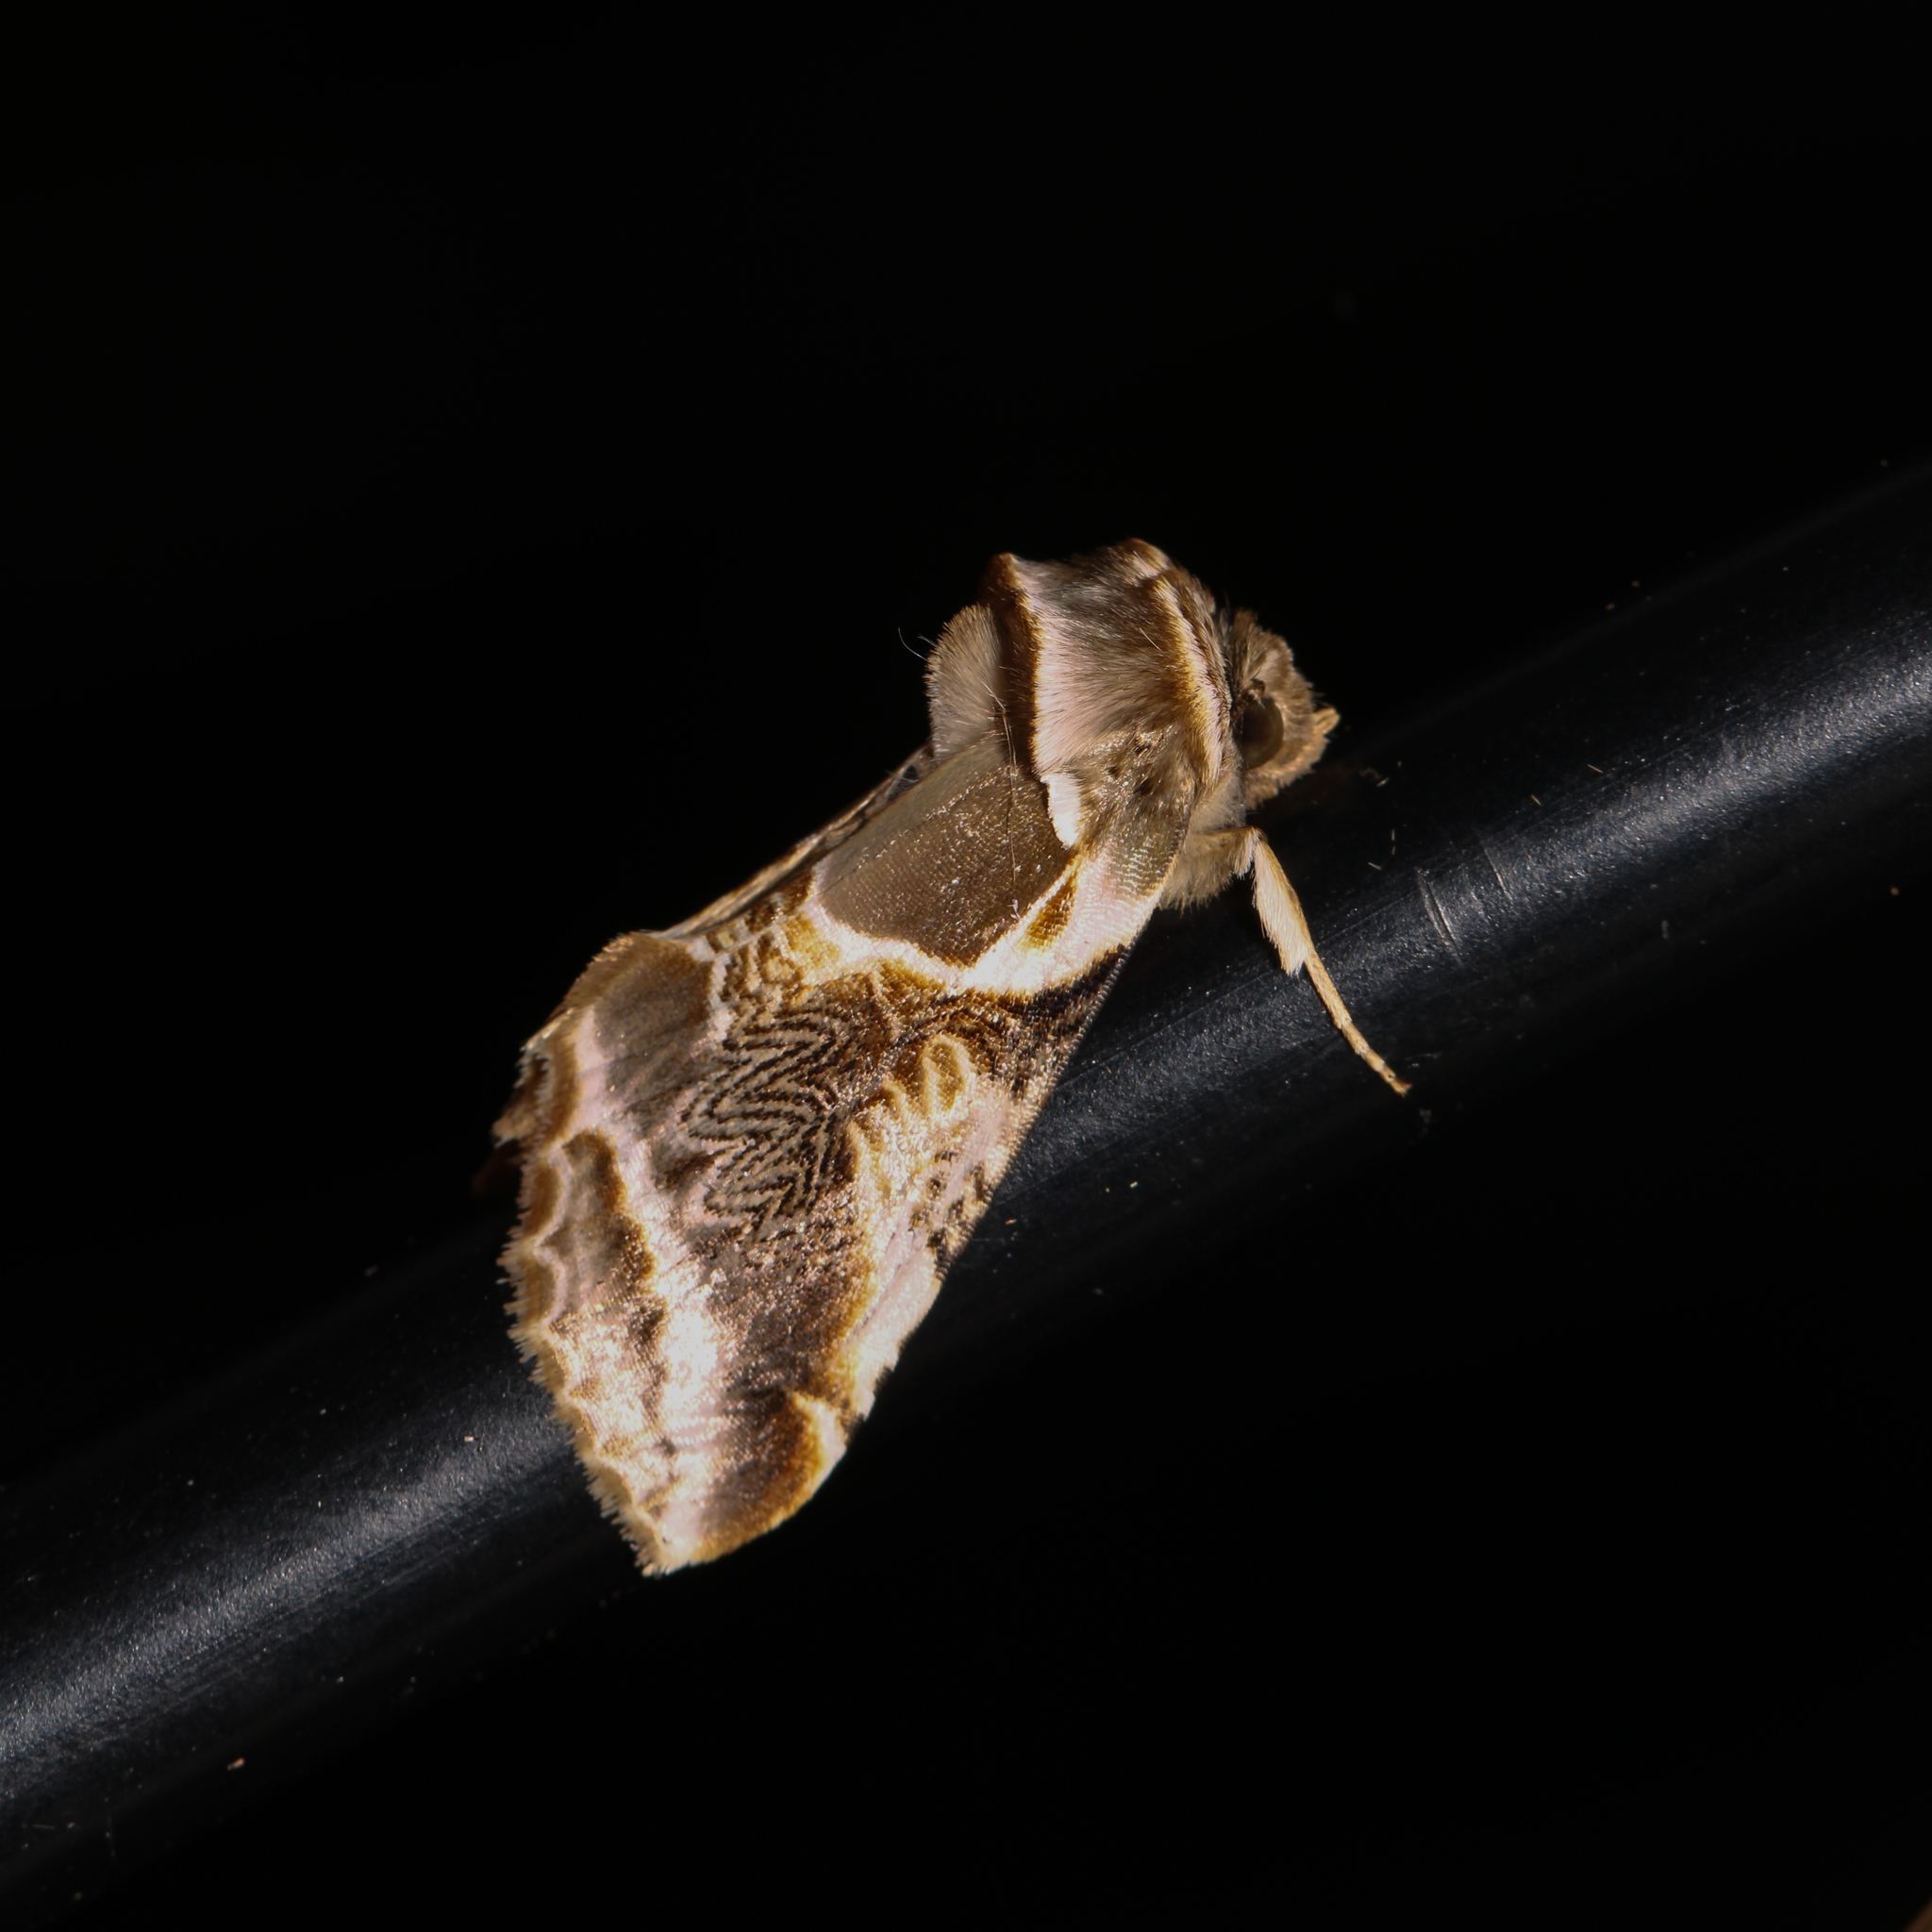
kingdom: Animalia
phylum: Arthropoda
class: Insecta
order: Lepidoptera
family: Drepanidae
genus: Habrosyne
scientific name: Habrosyne scripta
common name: Lettered habrosyne moth
